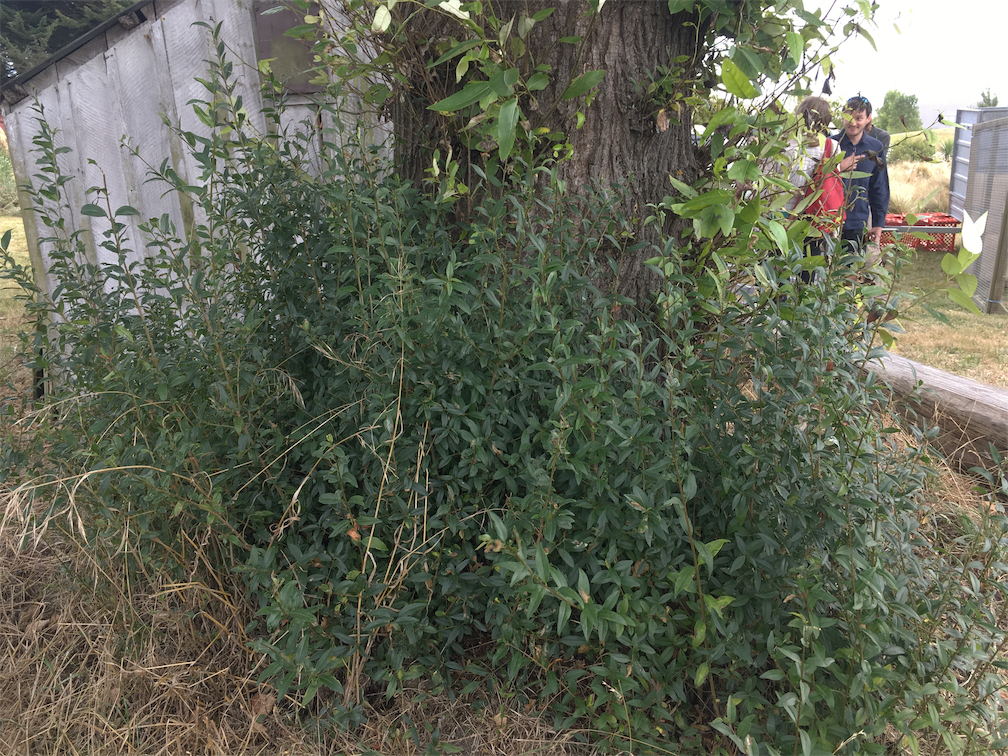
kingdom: Plantae
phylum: Tracheophyta
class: Magnoliopsida
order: Lamiales
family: Oleaceae
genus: Ligustrum
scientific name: Ligustrum vulgare
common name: Wild privet
